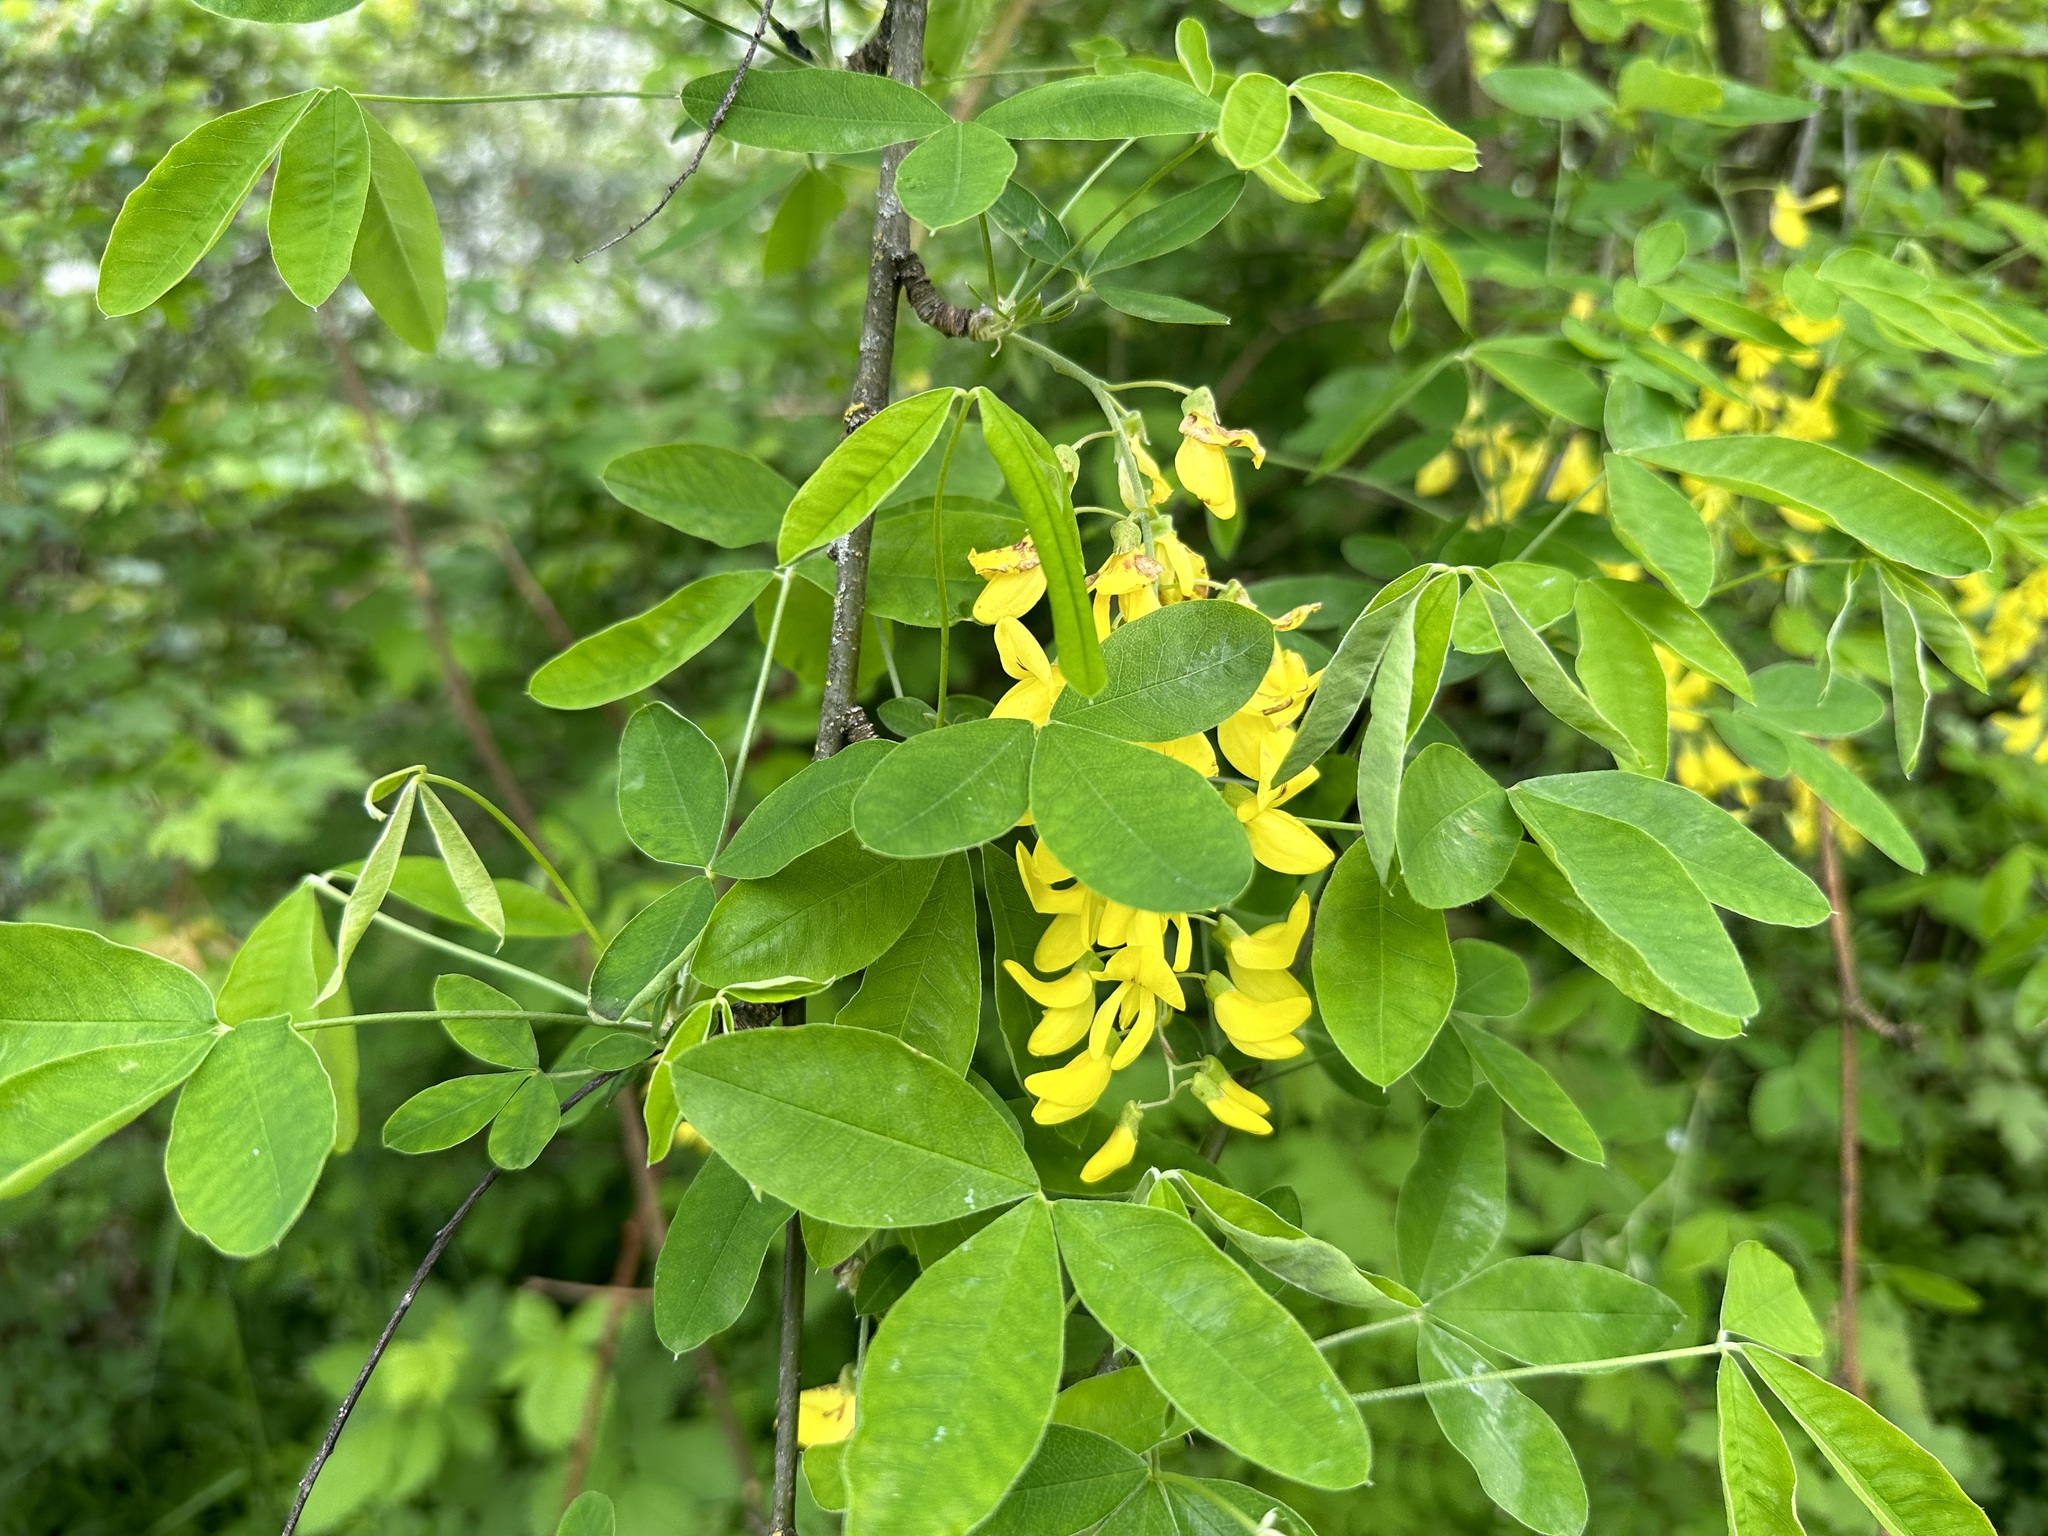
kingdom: Plantae
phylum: Tracheophyta
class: Magnoliopsida
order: Fabales
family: Fabaceae
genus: Laburnum
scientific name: Laburnum anagyroides
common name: Laburnum
